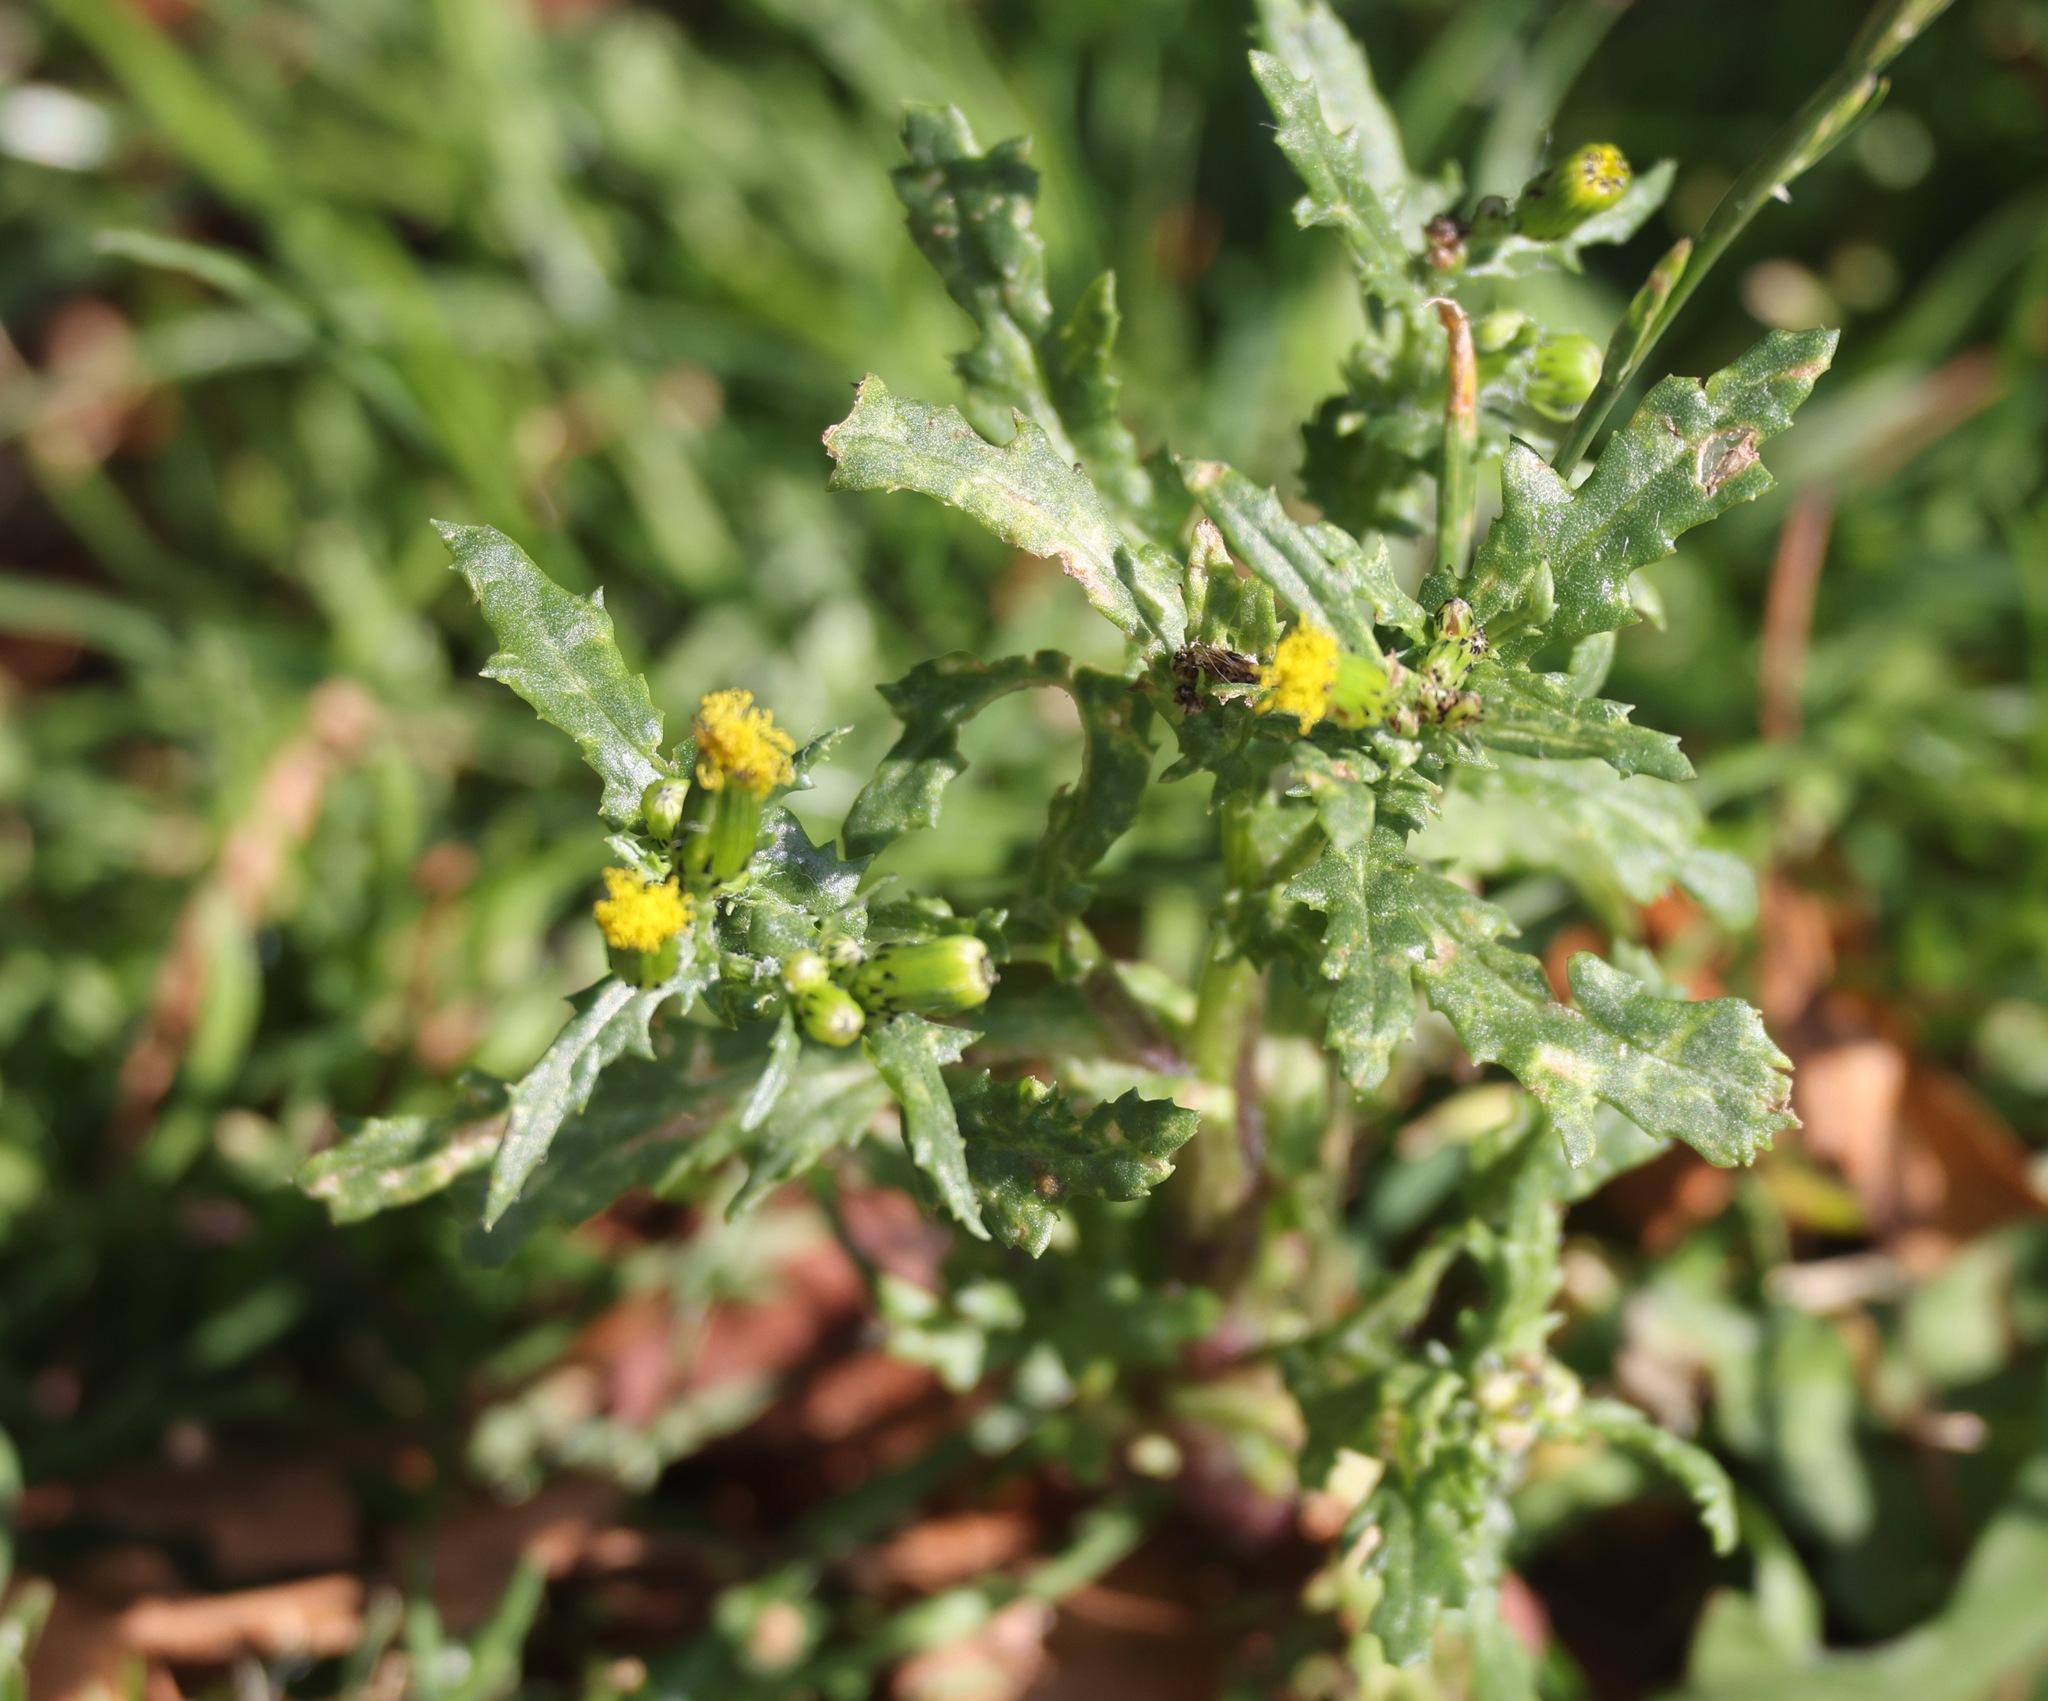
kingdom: Plantae
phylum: Tracheophyta
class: Magnoliopsida
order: Asterales
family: Asteraceae
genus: Senecio
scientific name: Senecio vulgaris
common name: Old-man-in-the-spring
